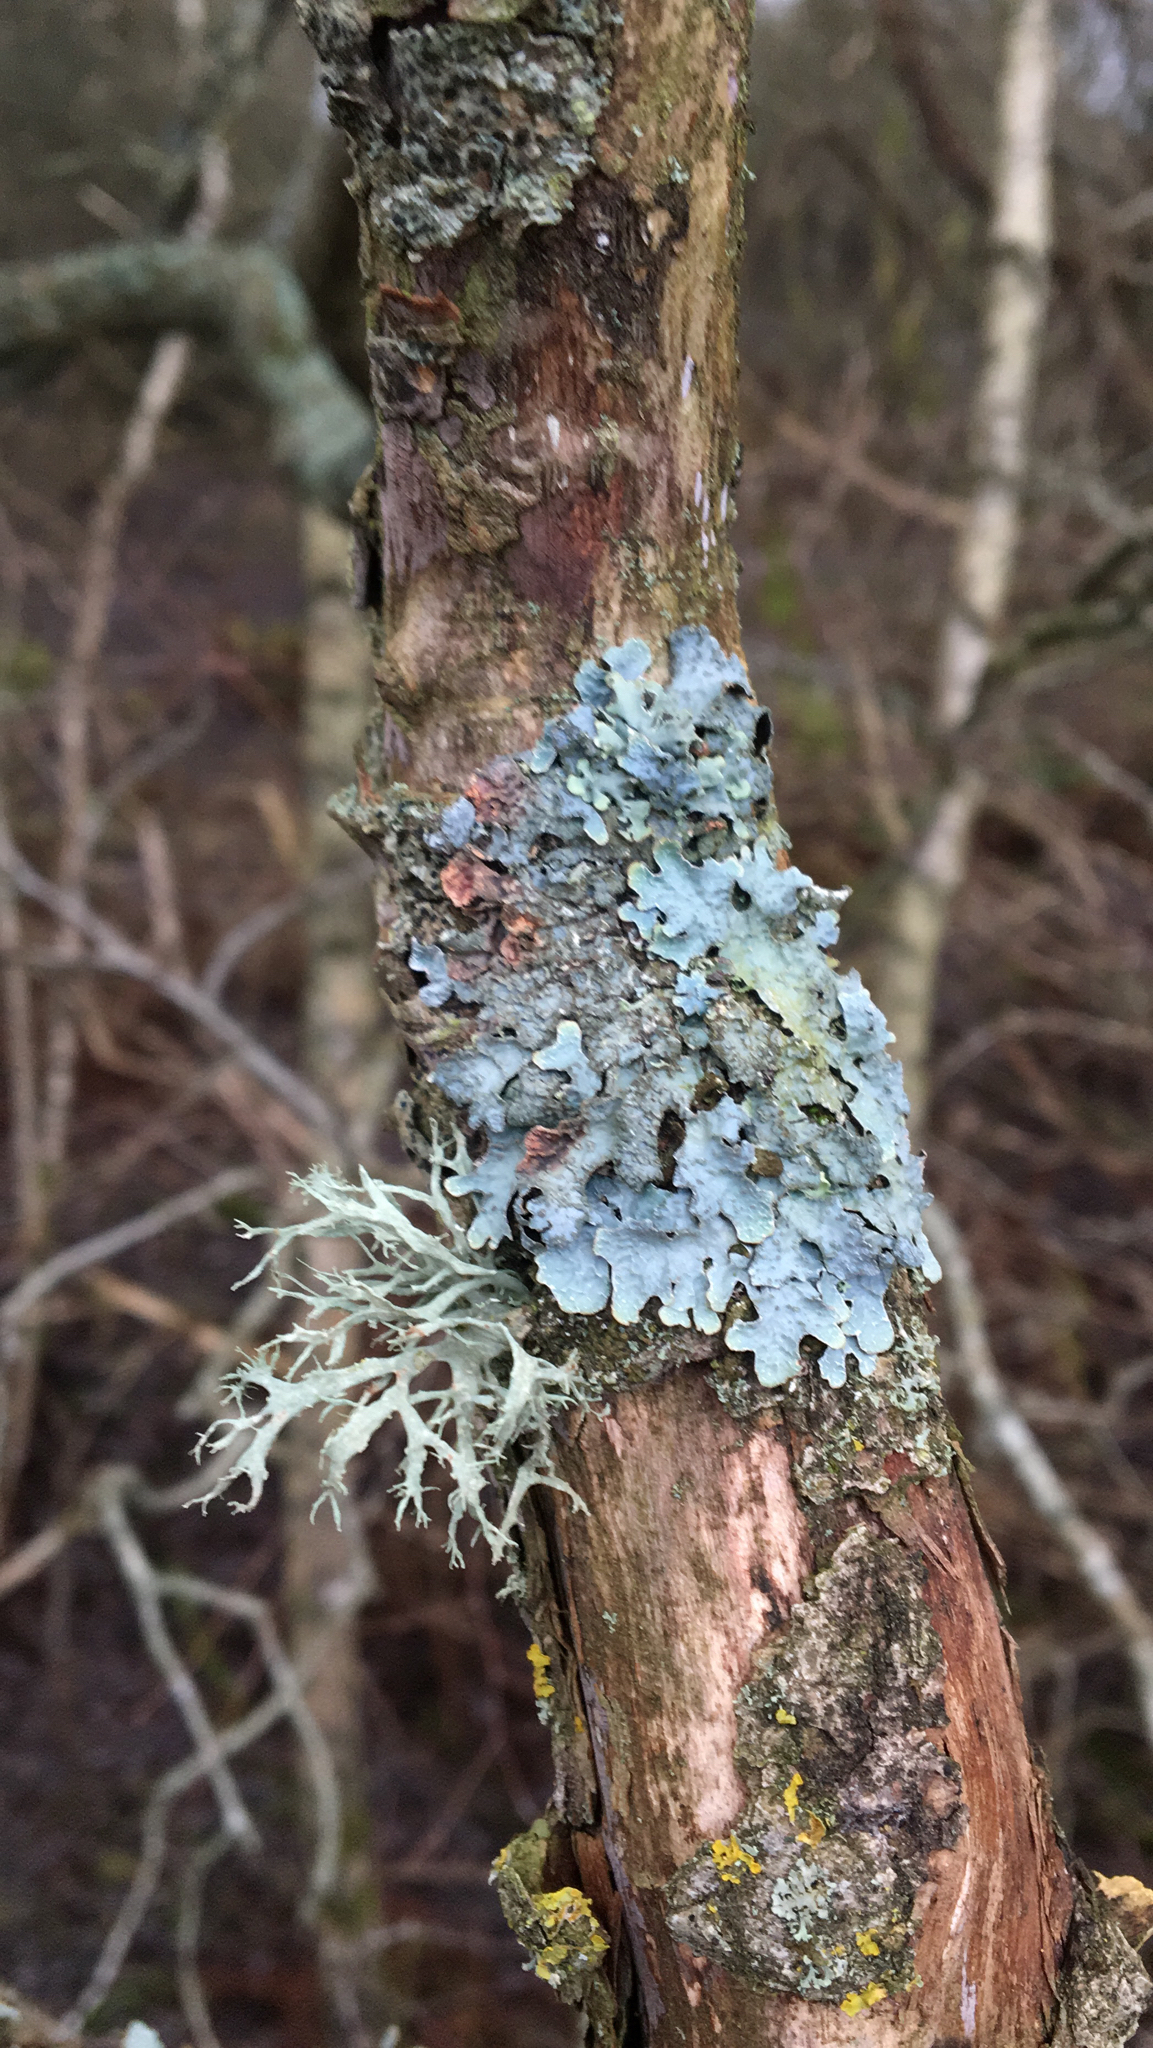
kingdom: Fungi
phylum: Ascomycota
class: Lecanoromycetes
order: Lecanorales
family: Parmeliaceae
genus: Parmelia
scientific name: Parmelia sulcata
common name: Netted shield lichen
